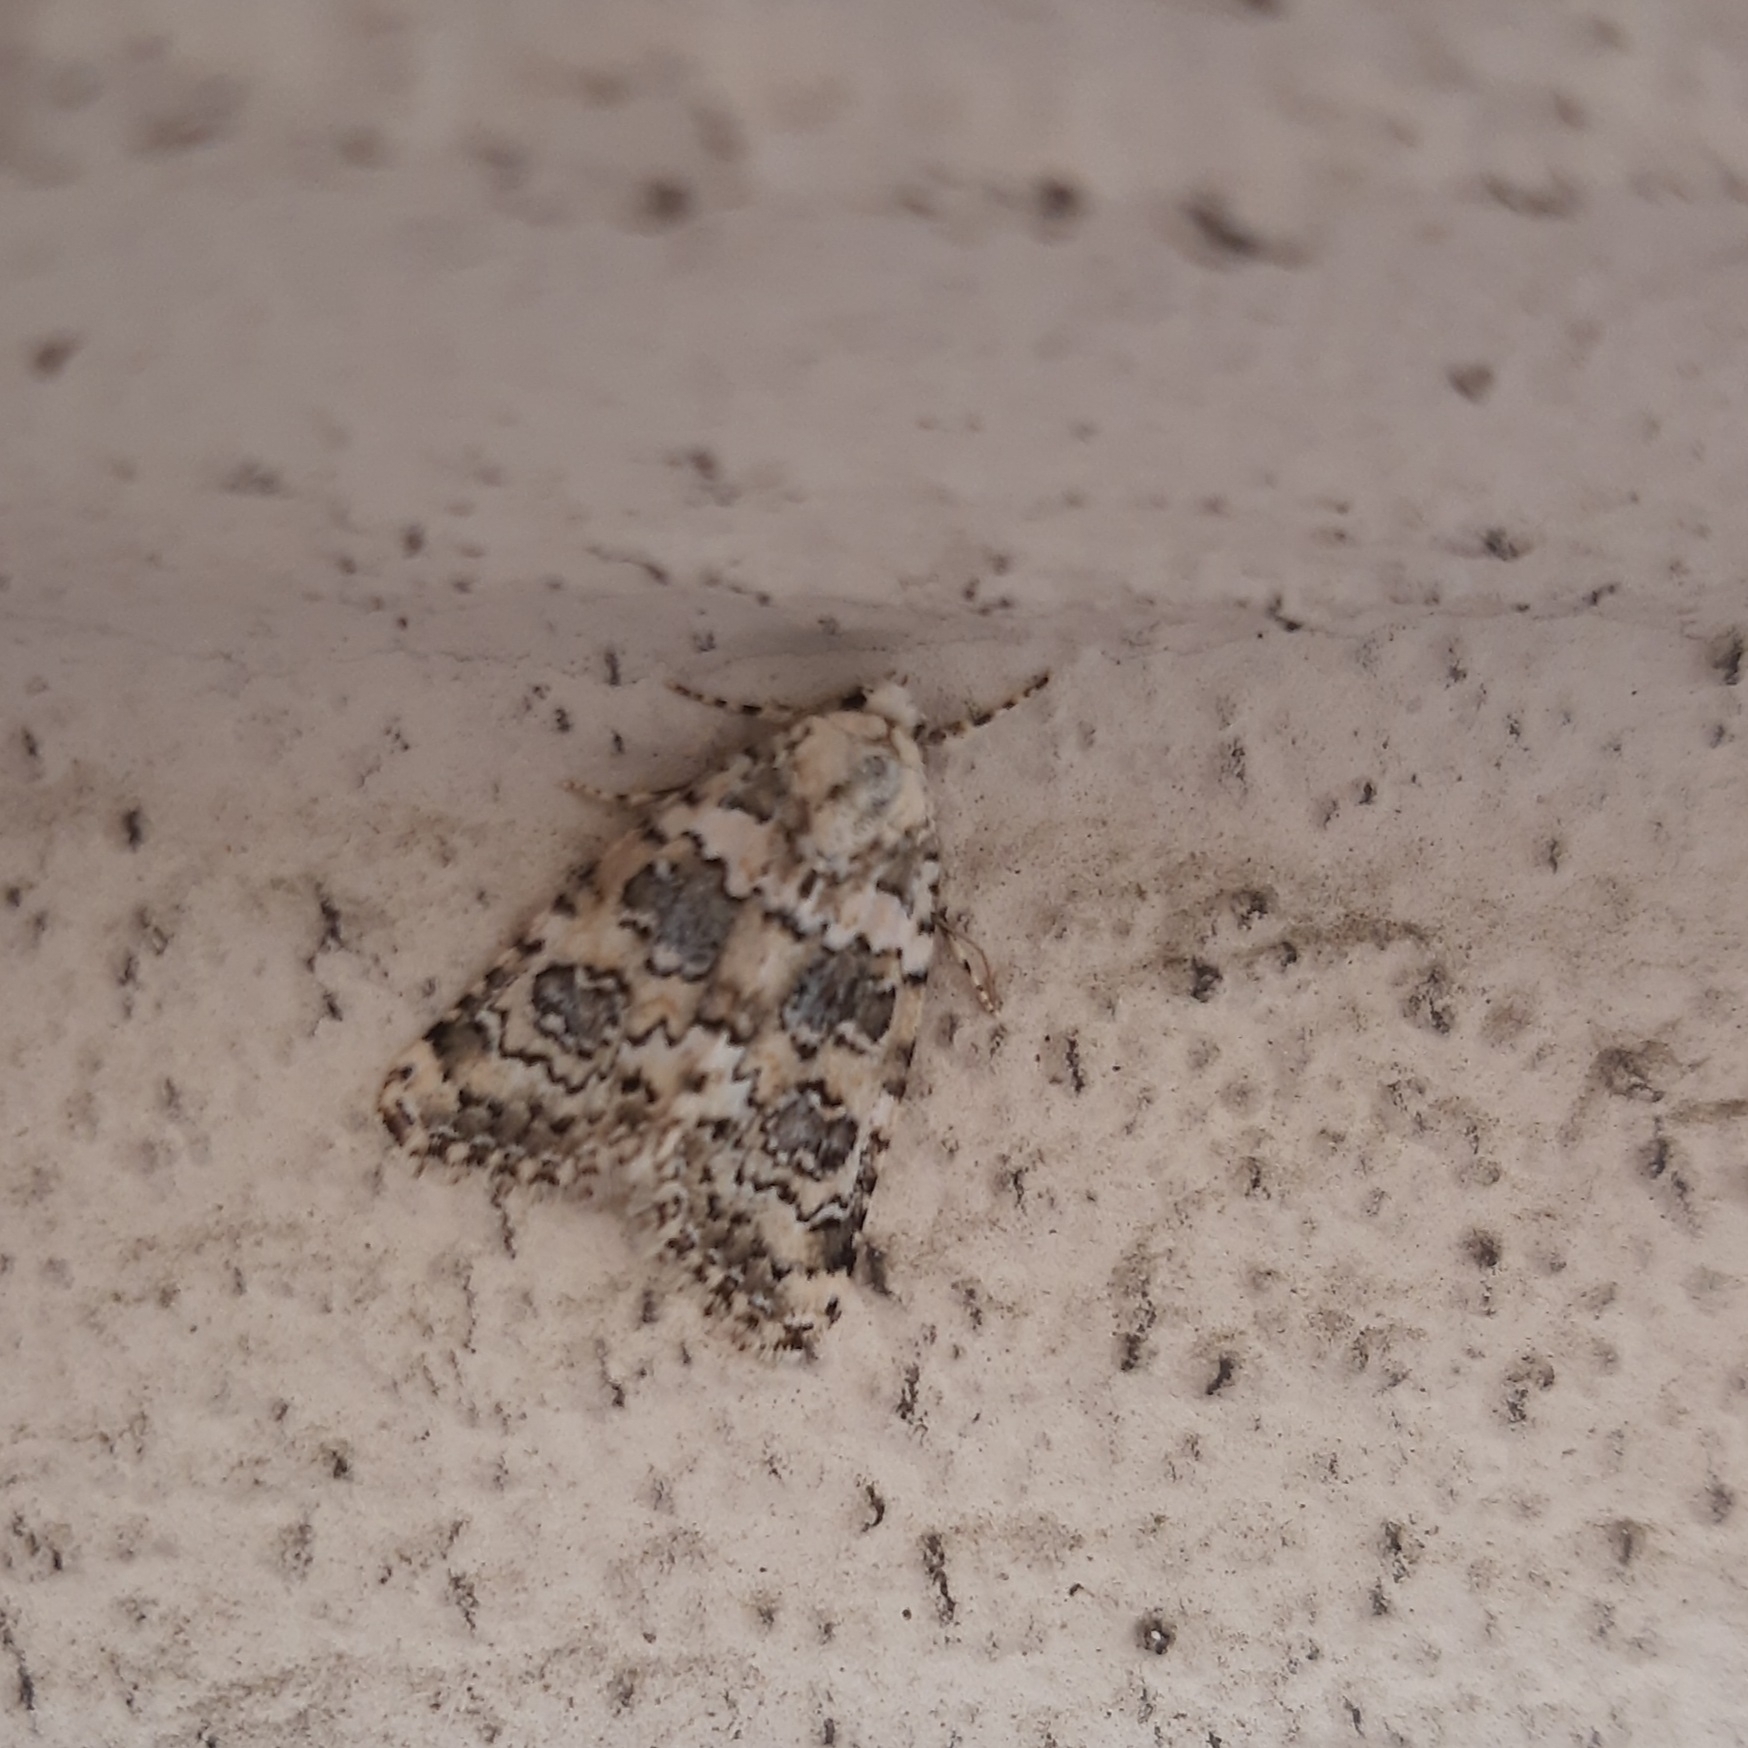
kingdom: Animalia
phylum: Arthropoda
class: Insecta
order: Lepidoptera
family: Noctuidae
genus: Bryophila
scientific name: Bryophila domestica
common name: Marbled beauty
